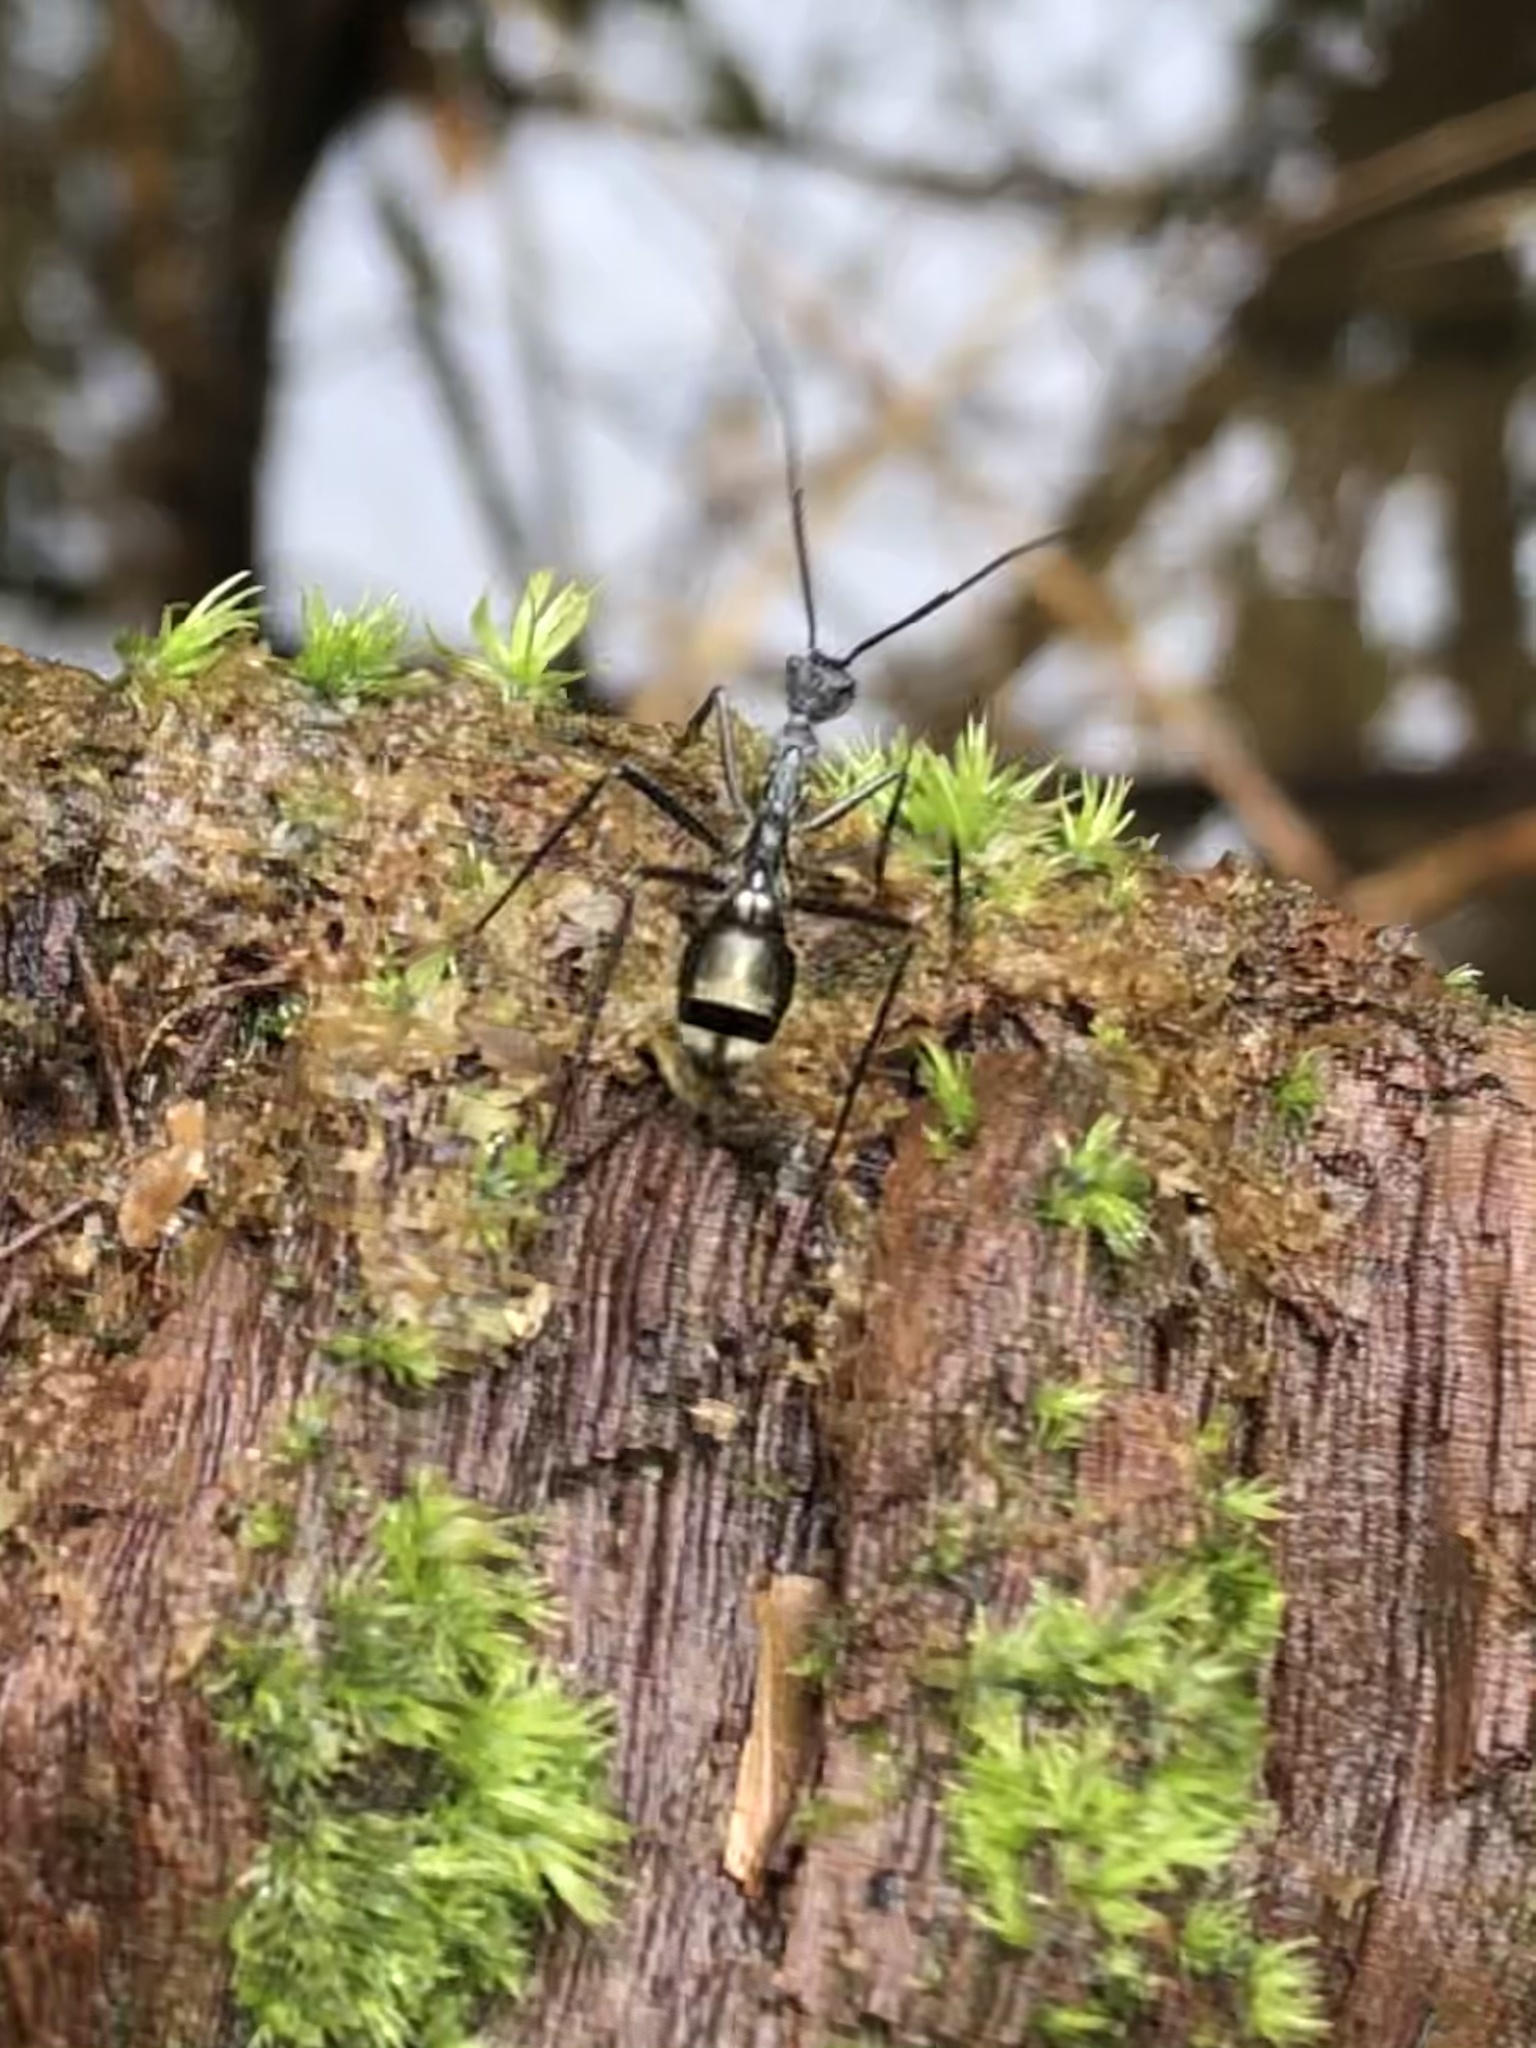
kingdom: Animalia
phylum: Arthropoda
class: Insecta
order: Hymenoptera
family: Formicidae
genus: Dolichoderus
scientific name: Dolichoderus rugosus
